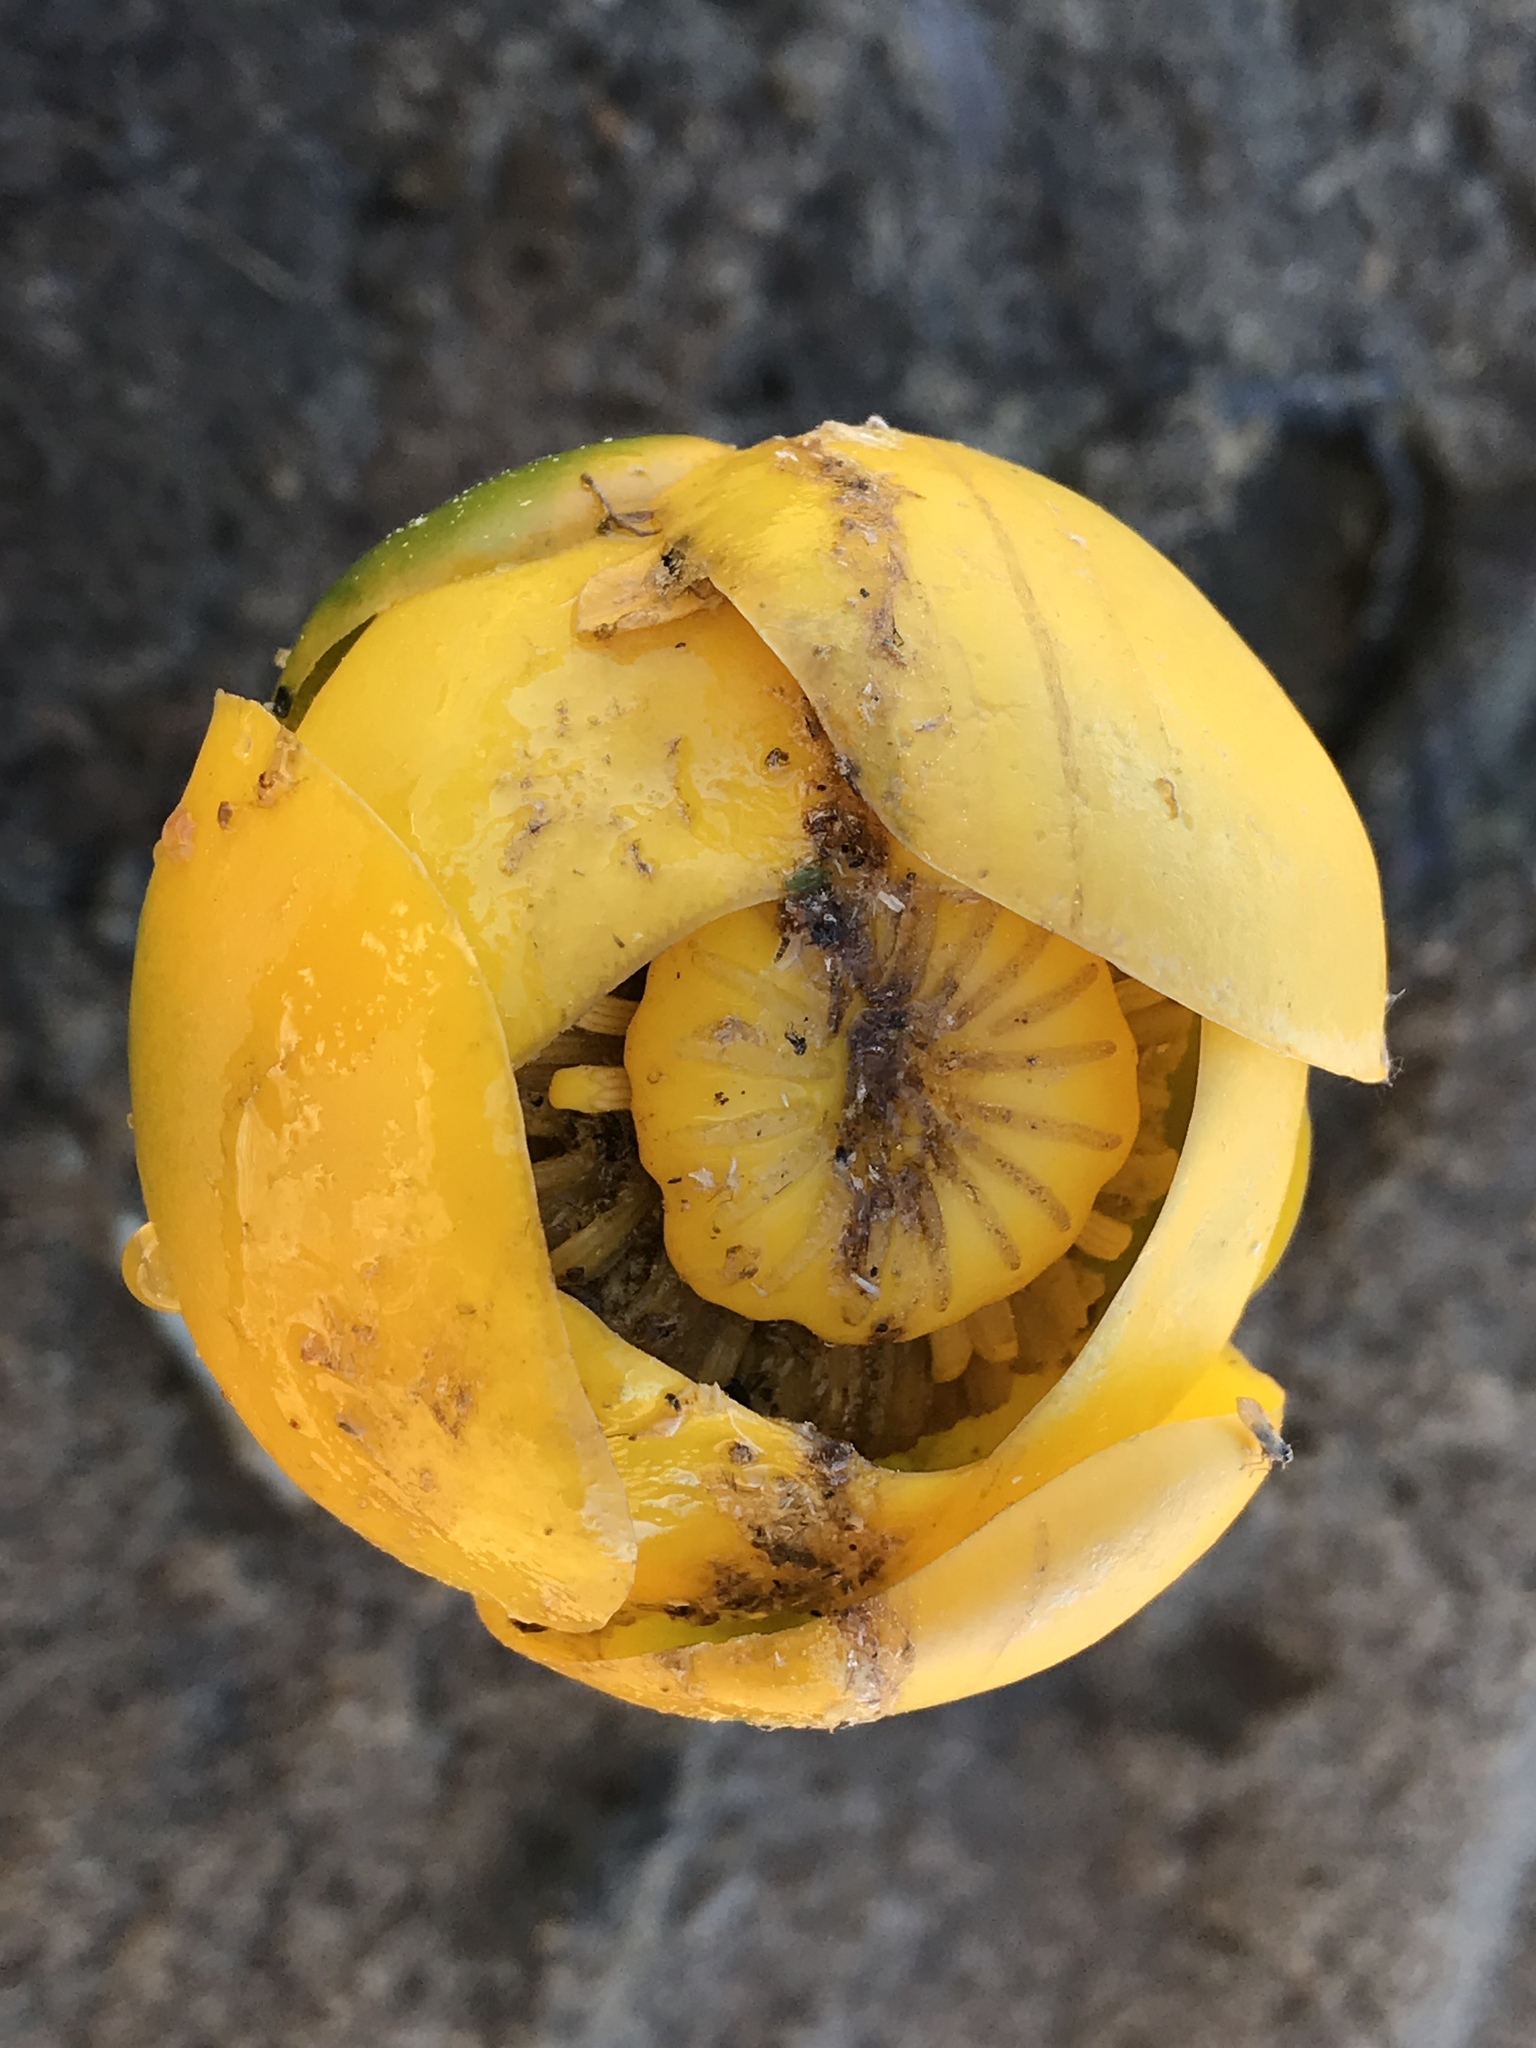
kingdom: Plantae
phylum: Tracheophyta
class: Magnoliopsida
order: Nymphaeales
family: Nymphaeaceae
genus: Nuphar
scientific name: Nuphar polysepala
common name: Rocky mountain cow-lily
